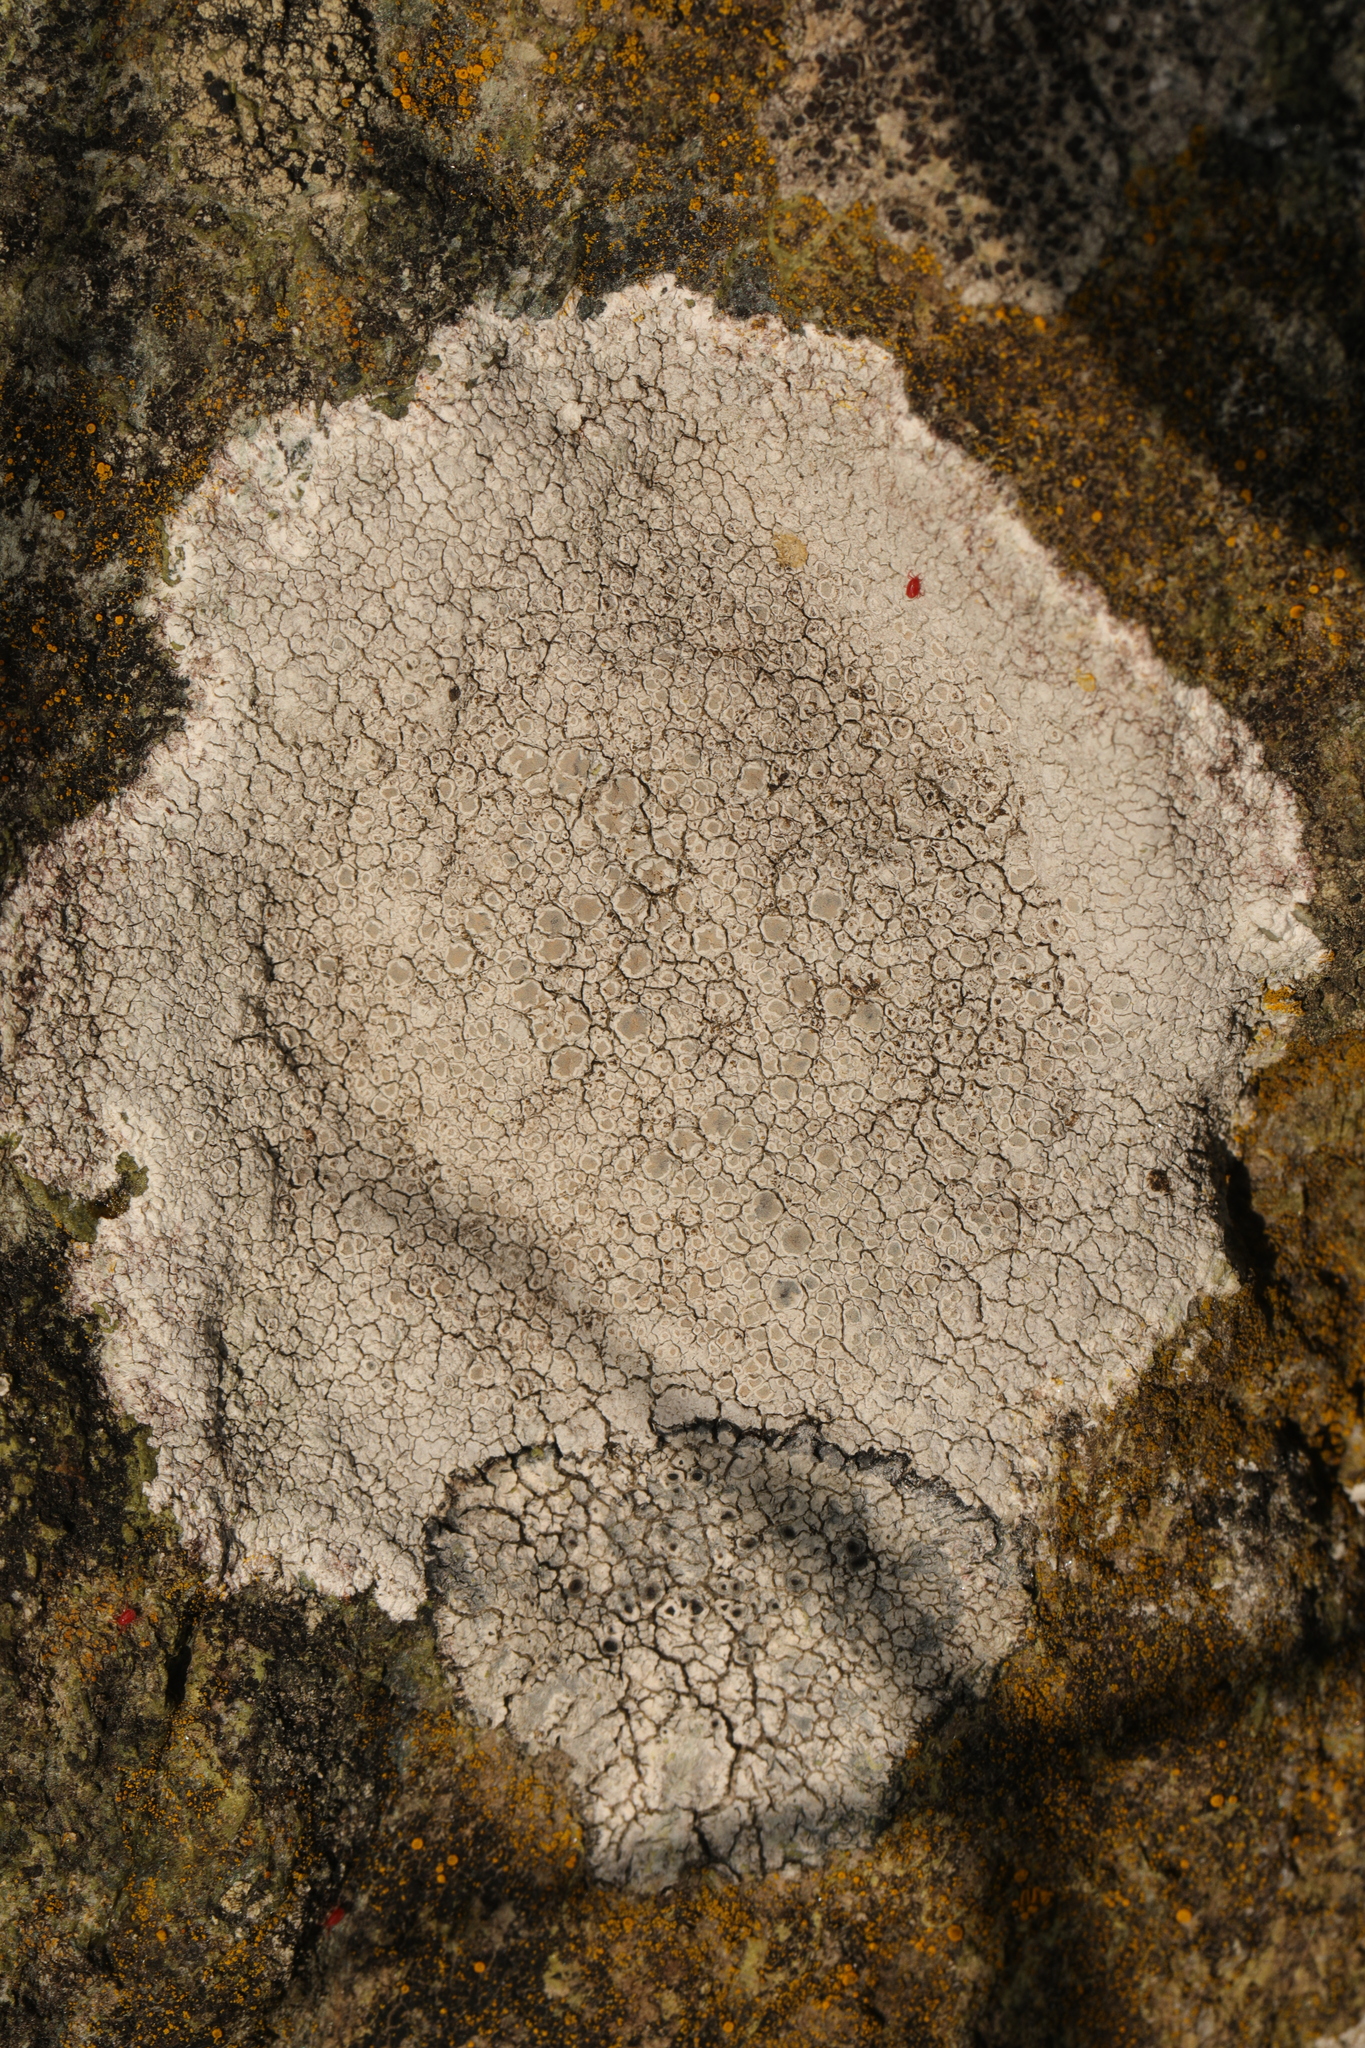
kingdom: Fungi
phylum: Ascomycota
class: Lecanoromycetes
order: Lecanorales
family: Lecanoraceae
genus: Glaucomaria
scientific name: Glaucomaria rupicola
